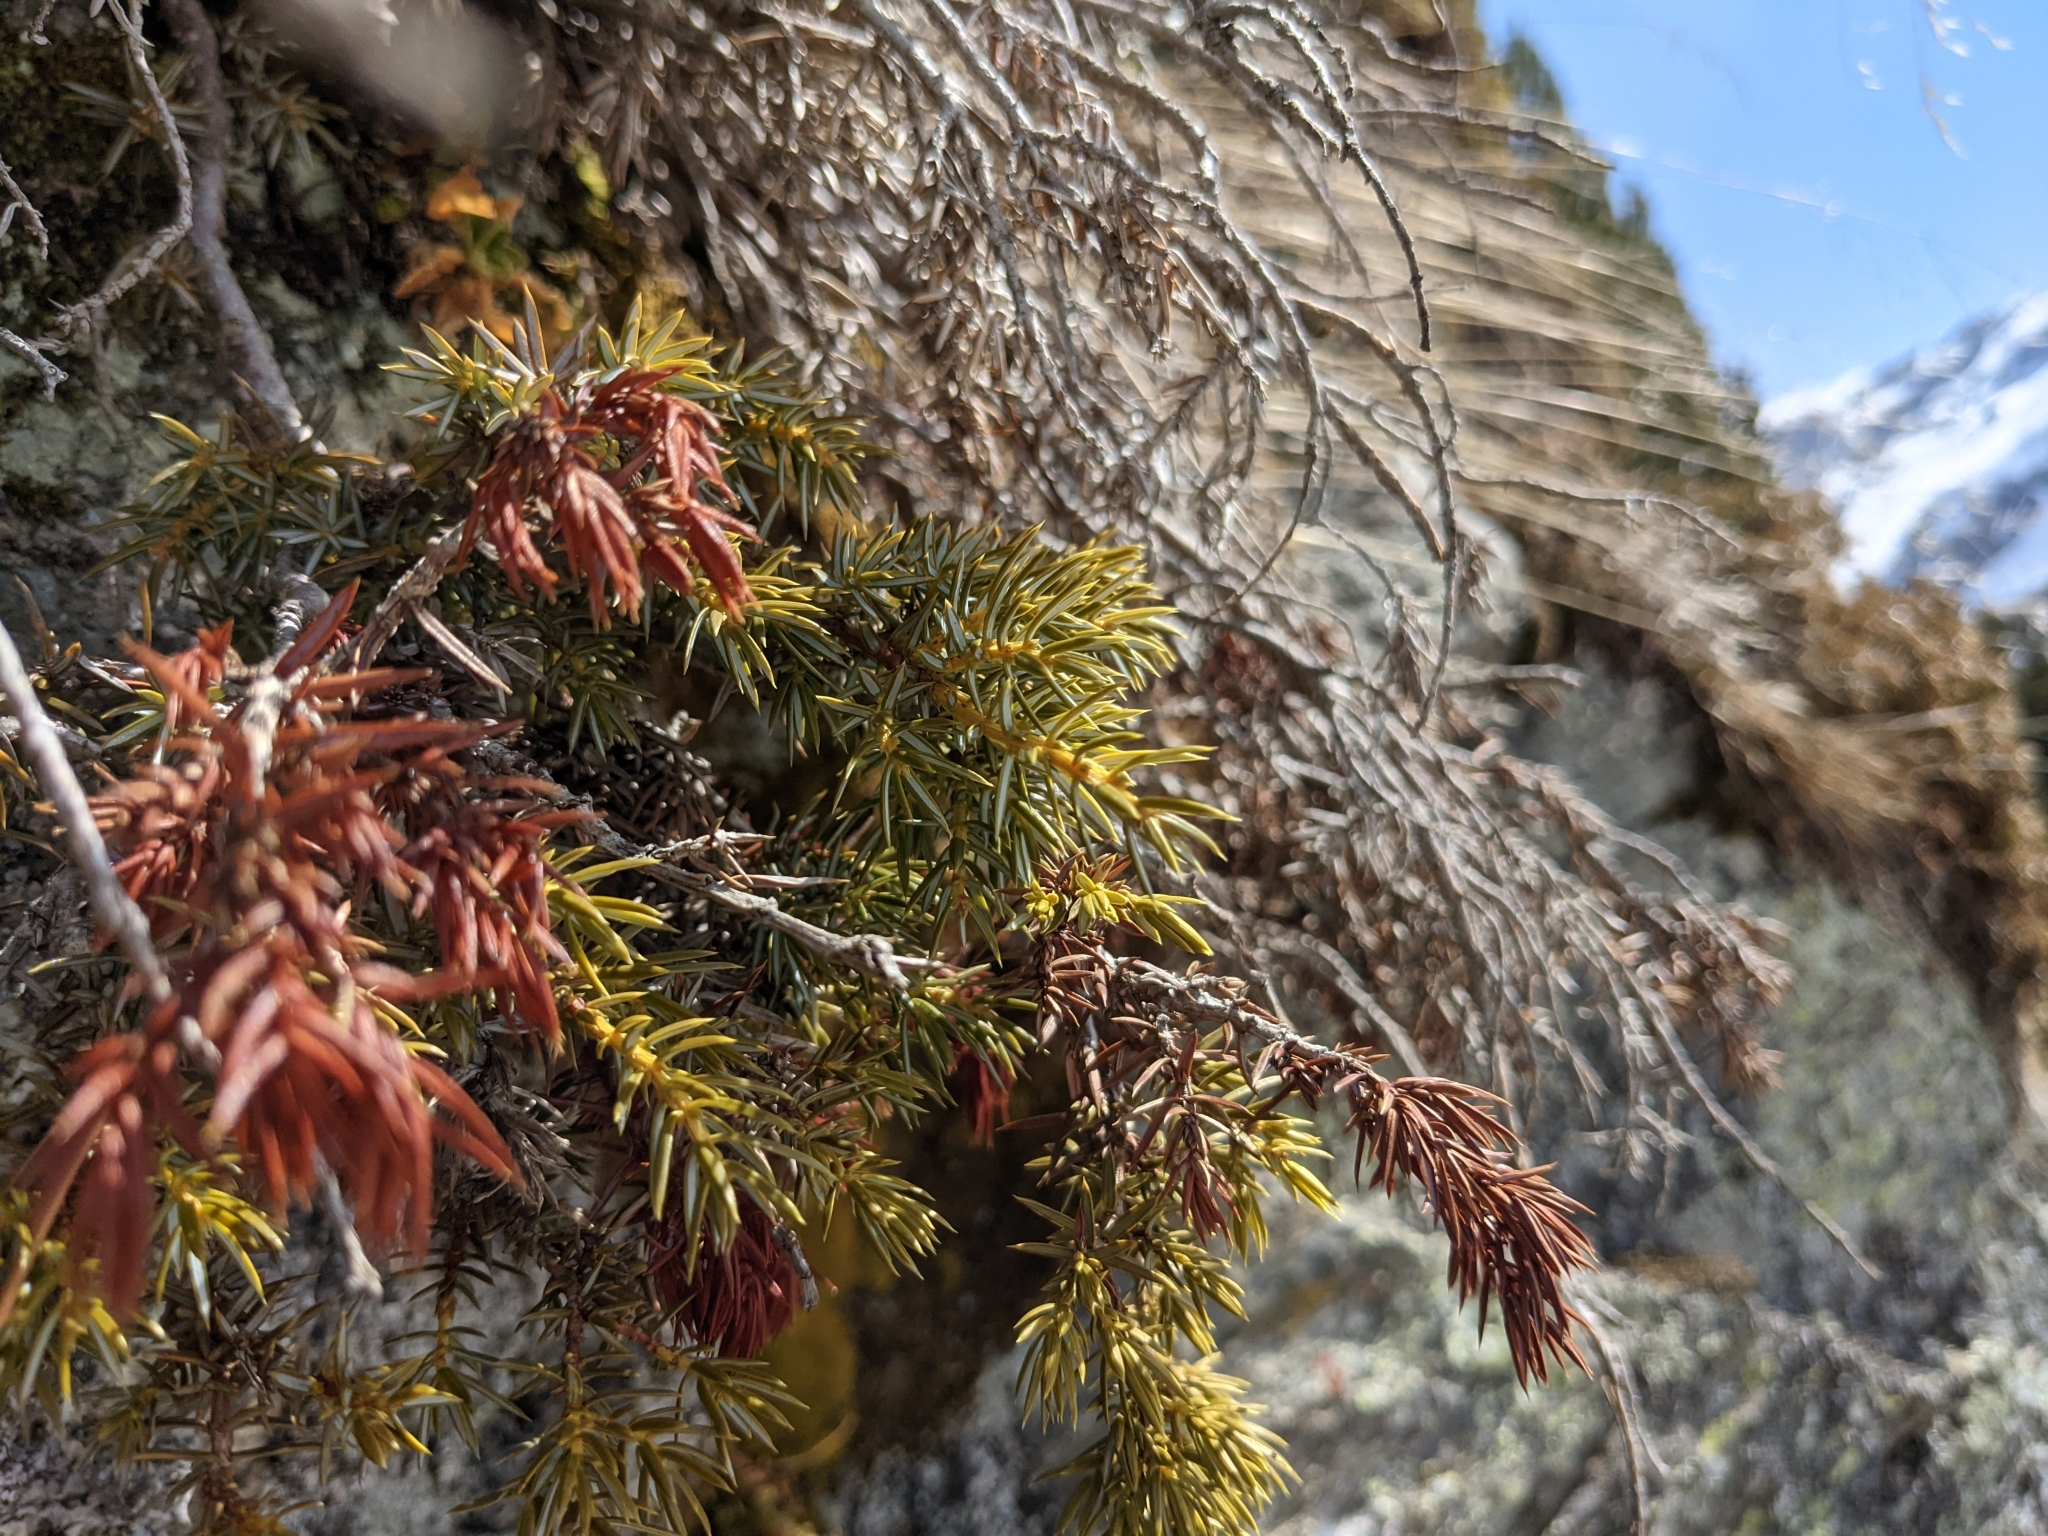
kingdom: Plantae
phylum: Tracheophyta
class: Pinopsida
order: Pinales
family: Cupressaceae
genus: Juniperus
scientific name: Juniperus communis
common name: Common juniper
